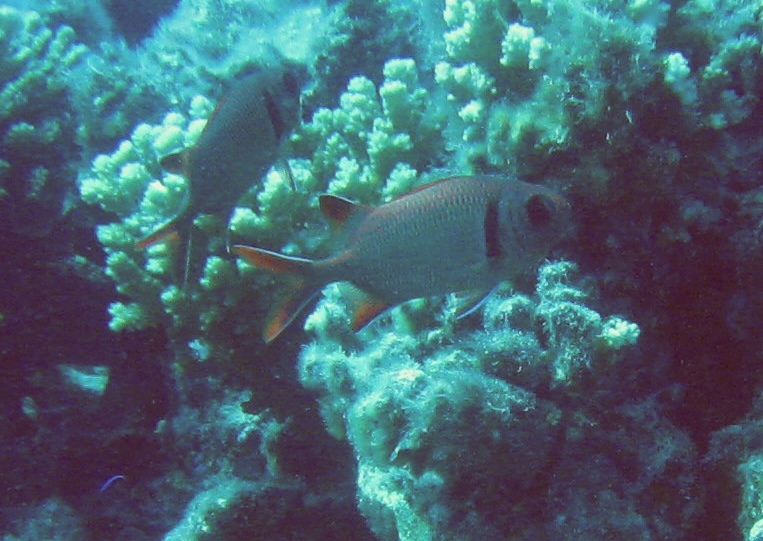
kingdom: Animalia
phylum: Chordata
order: Beryciformes
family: Holocentridae
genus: Myripristis
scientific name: Myripristis kuntee
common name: Epaulette soldierfish
